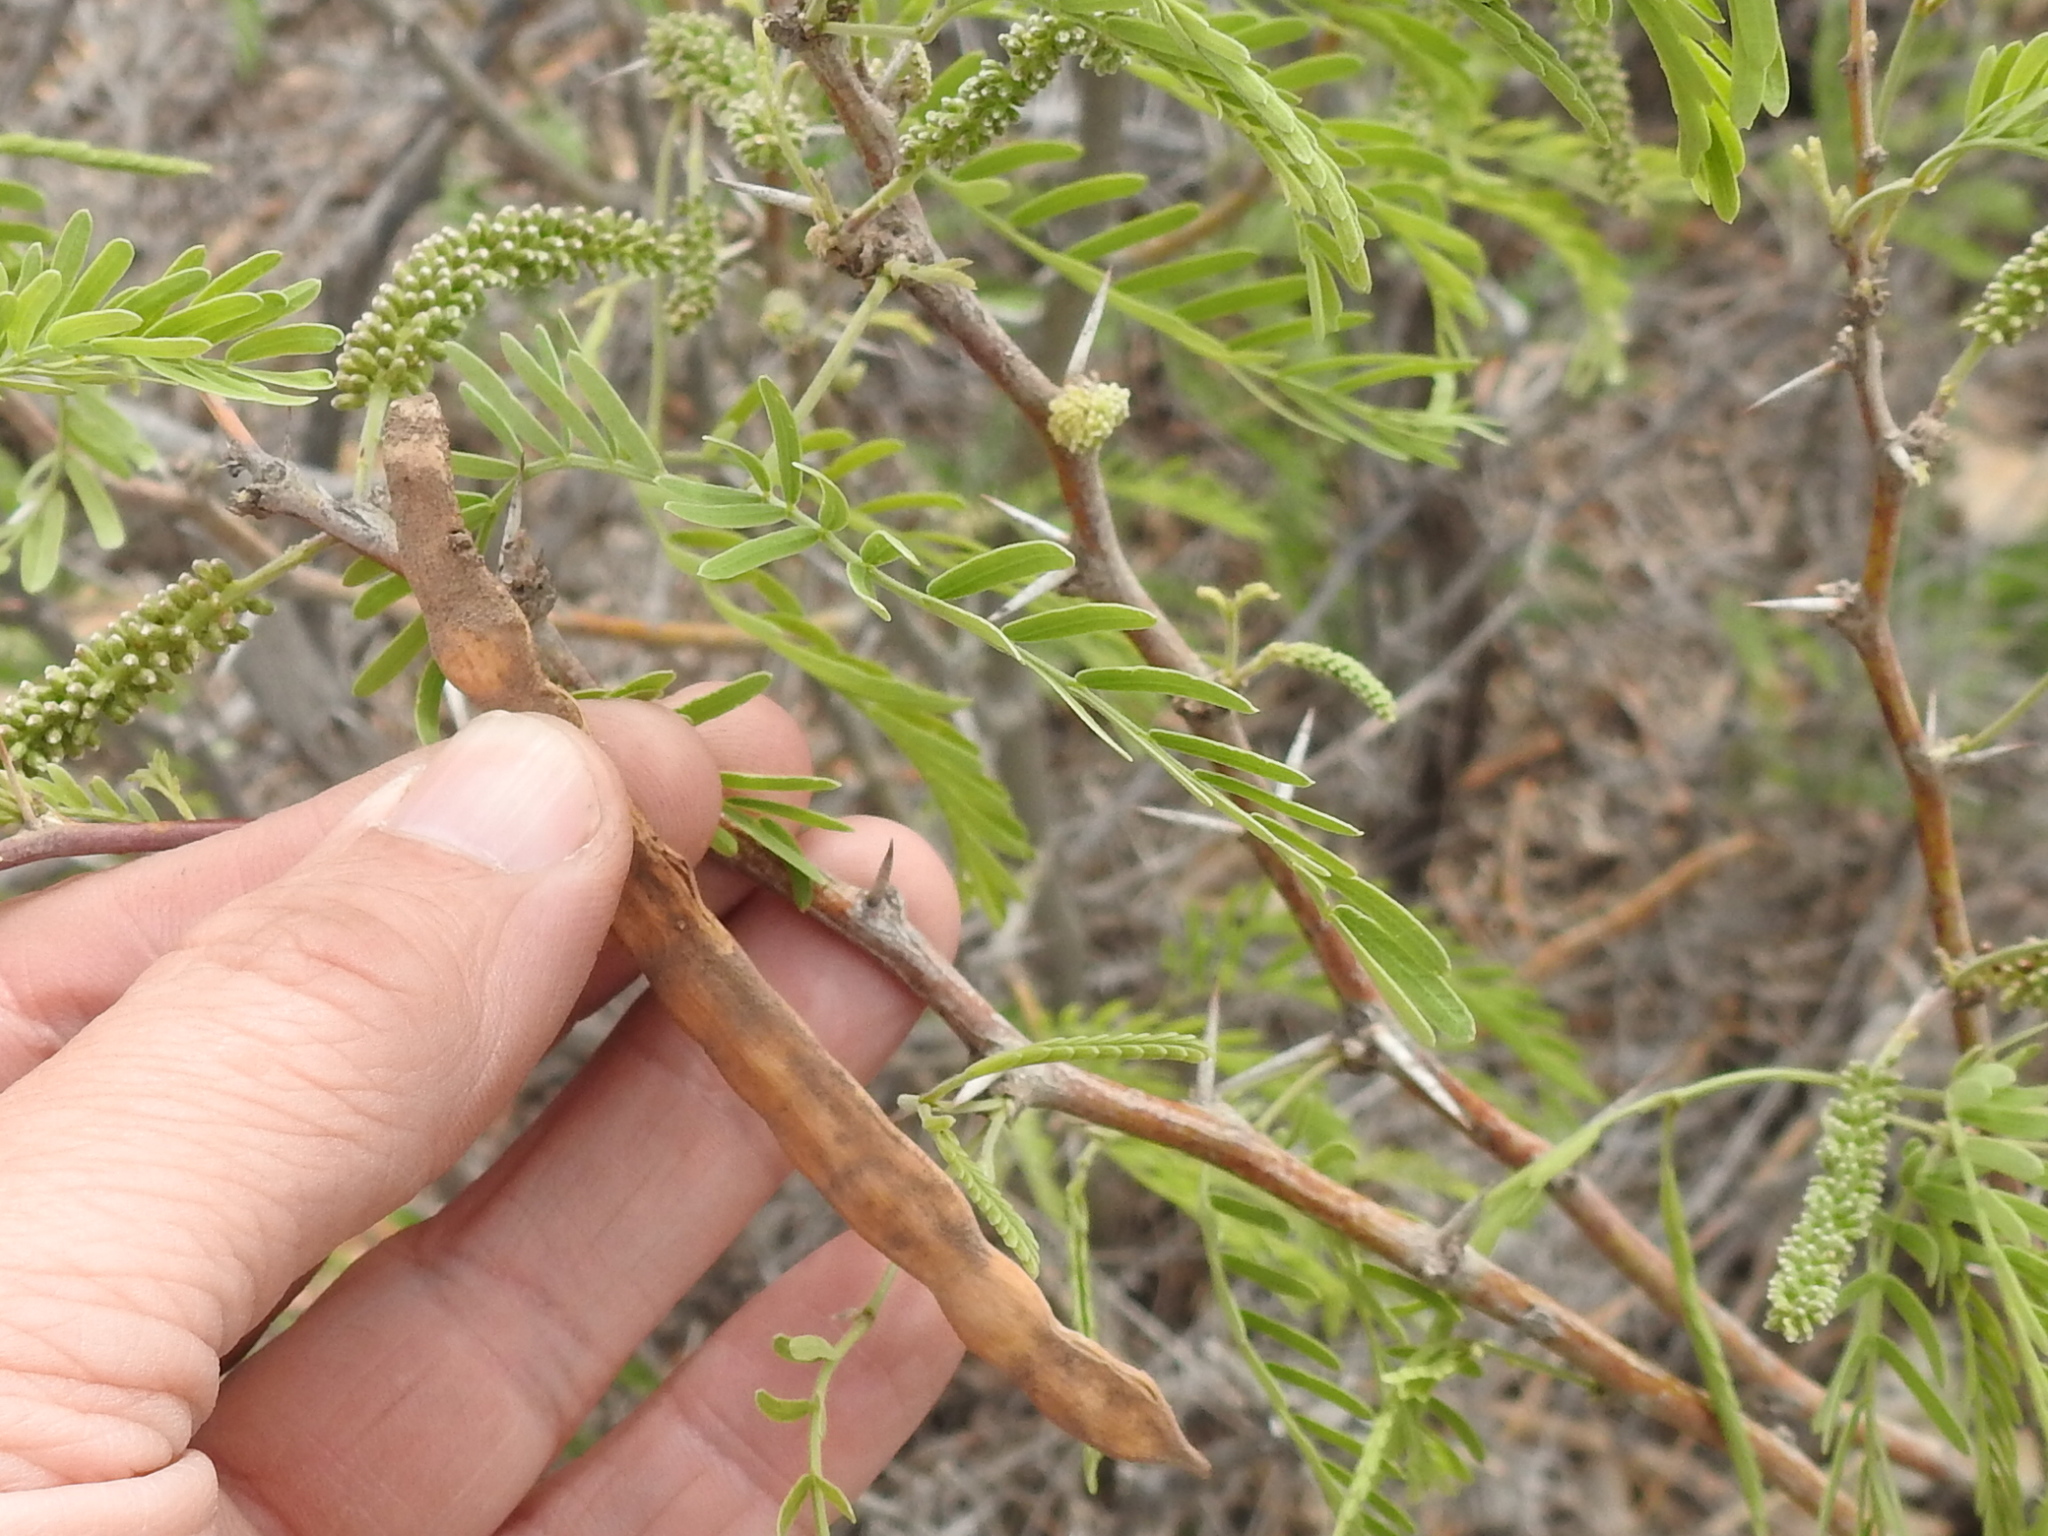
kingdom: Plantae
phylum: Tracheophyta
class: Magnoliopsida
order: Fabales
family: Fabaceae
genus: Prosopis
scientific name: Prosopis glandulosa
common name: Honey mesquite
